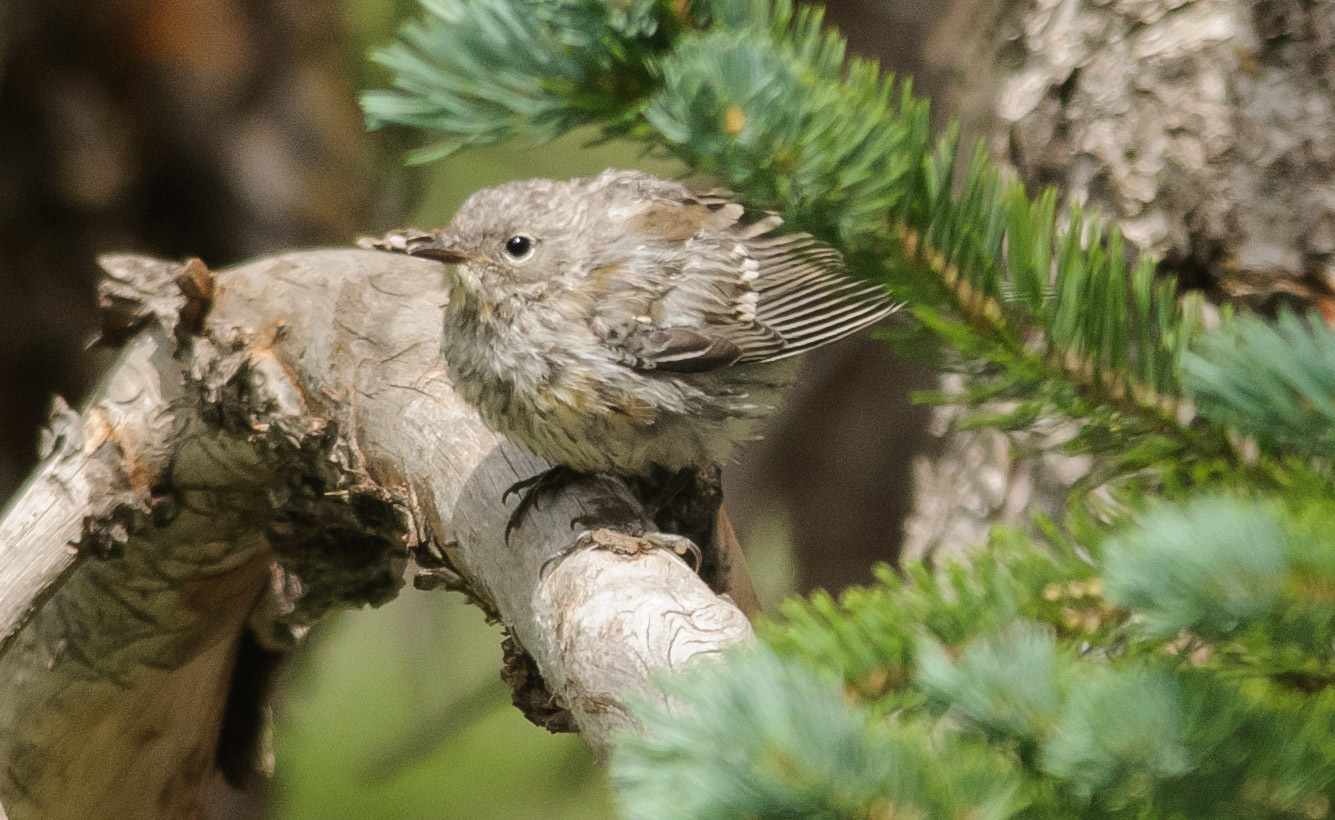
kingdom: Animalia
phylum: Chordata
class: Aves
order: Passeriformes
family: Parulidae
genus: Setophaga
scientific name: Setophaga coronata
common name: Myrtle warbler
